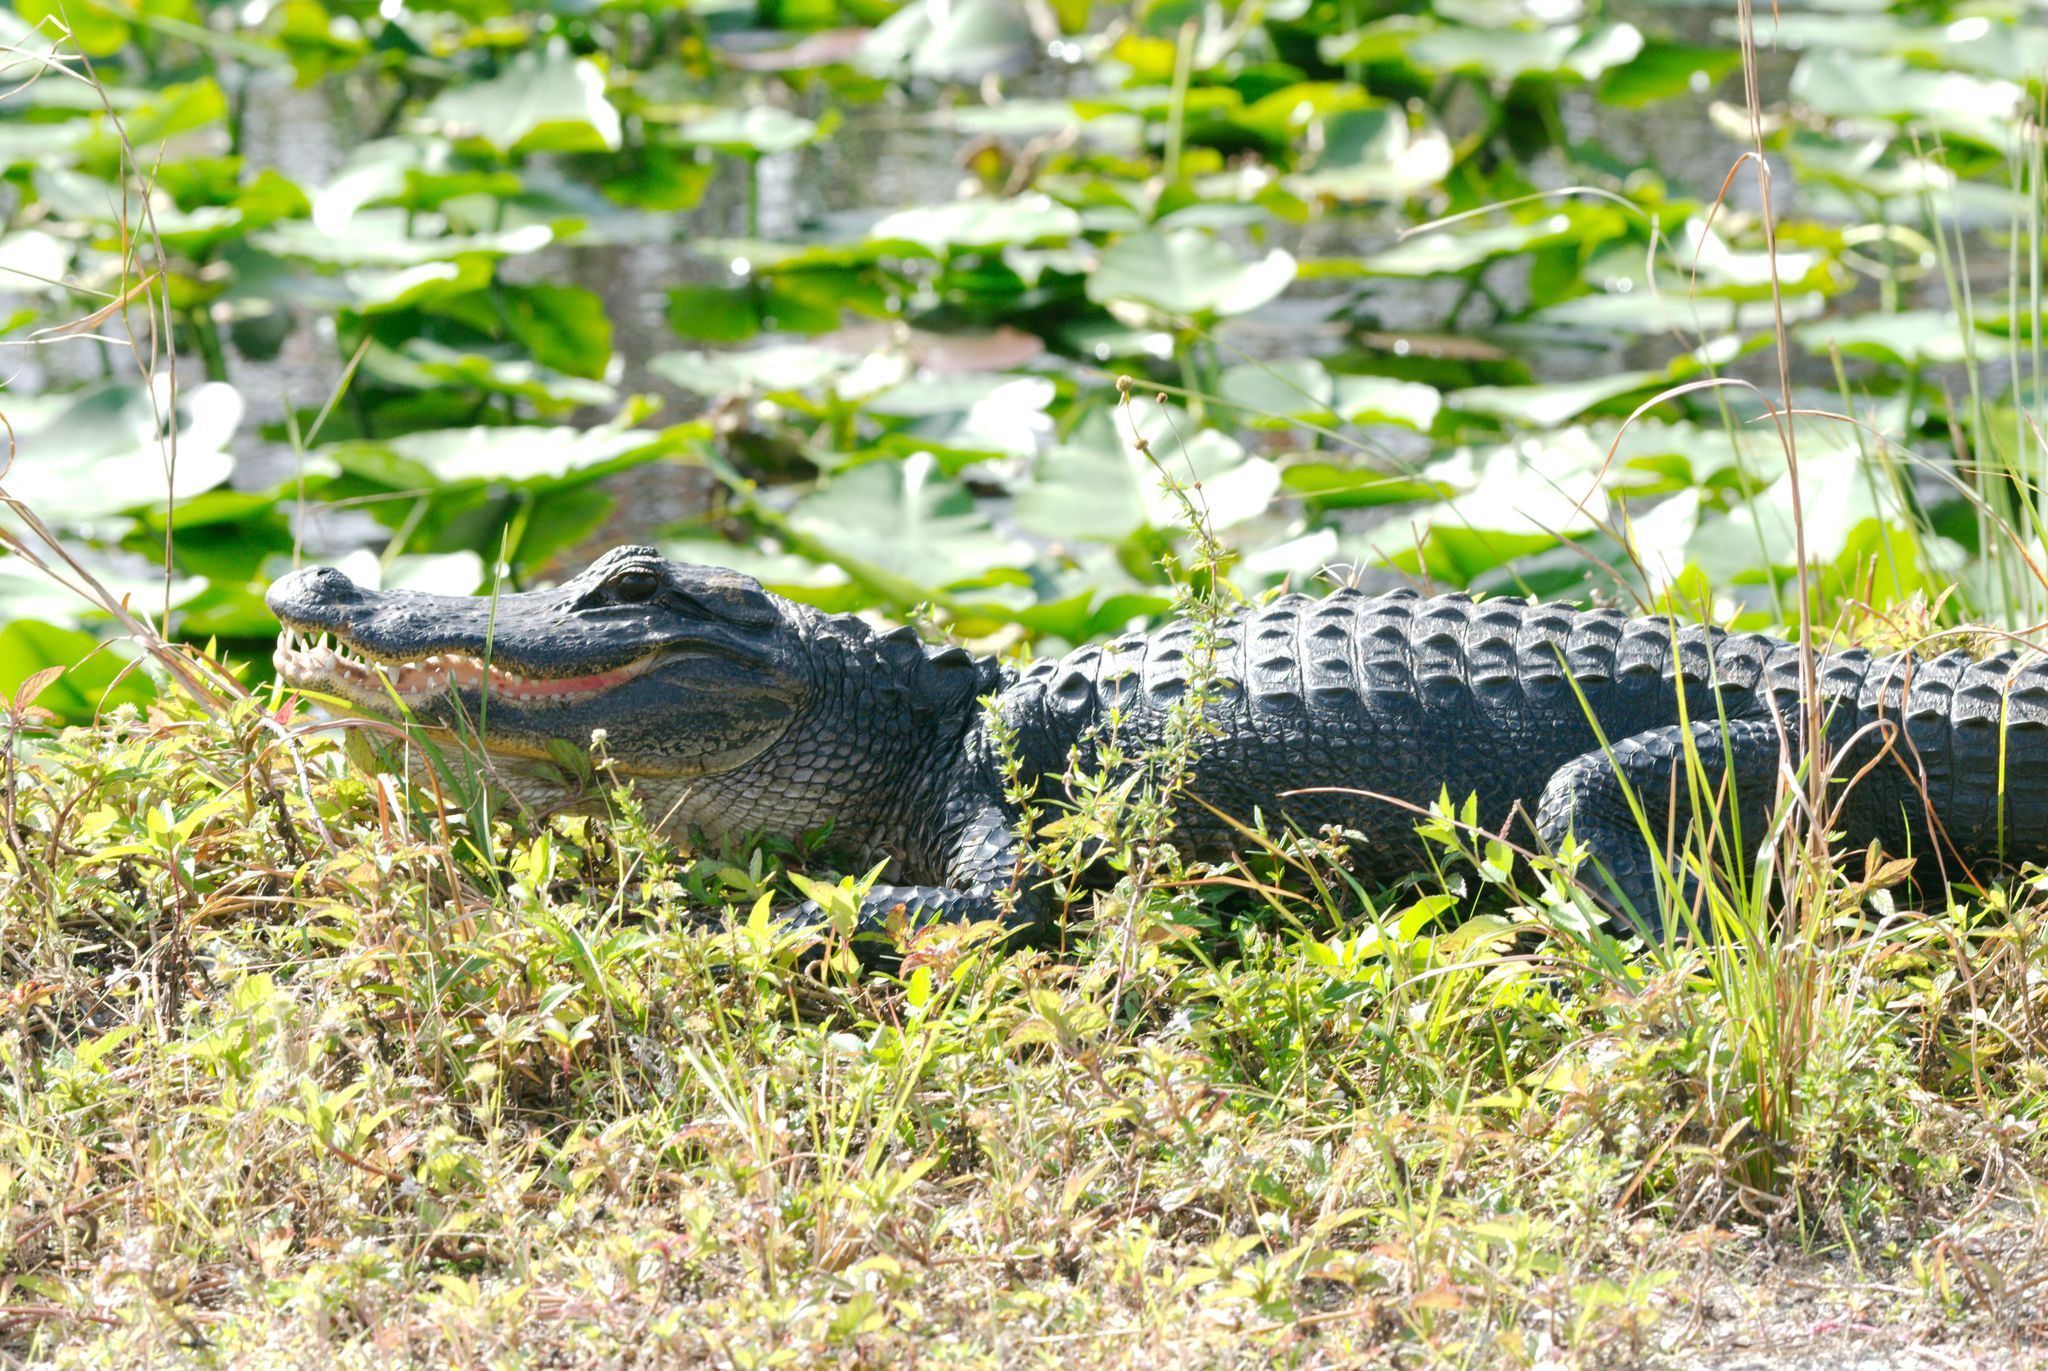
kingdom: Animalia
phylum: Chordata
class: Crocodylia
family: Alligatoridae
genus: Alligator
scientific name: Alligator mississippiensis
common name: American alligator
